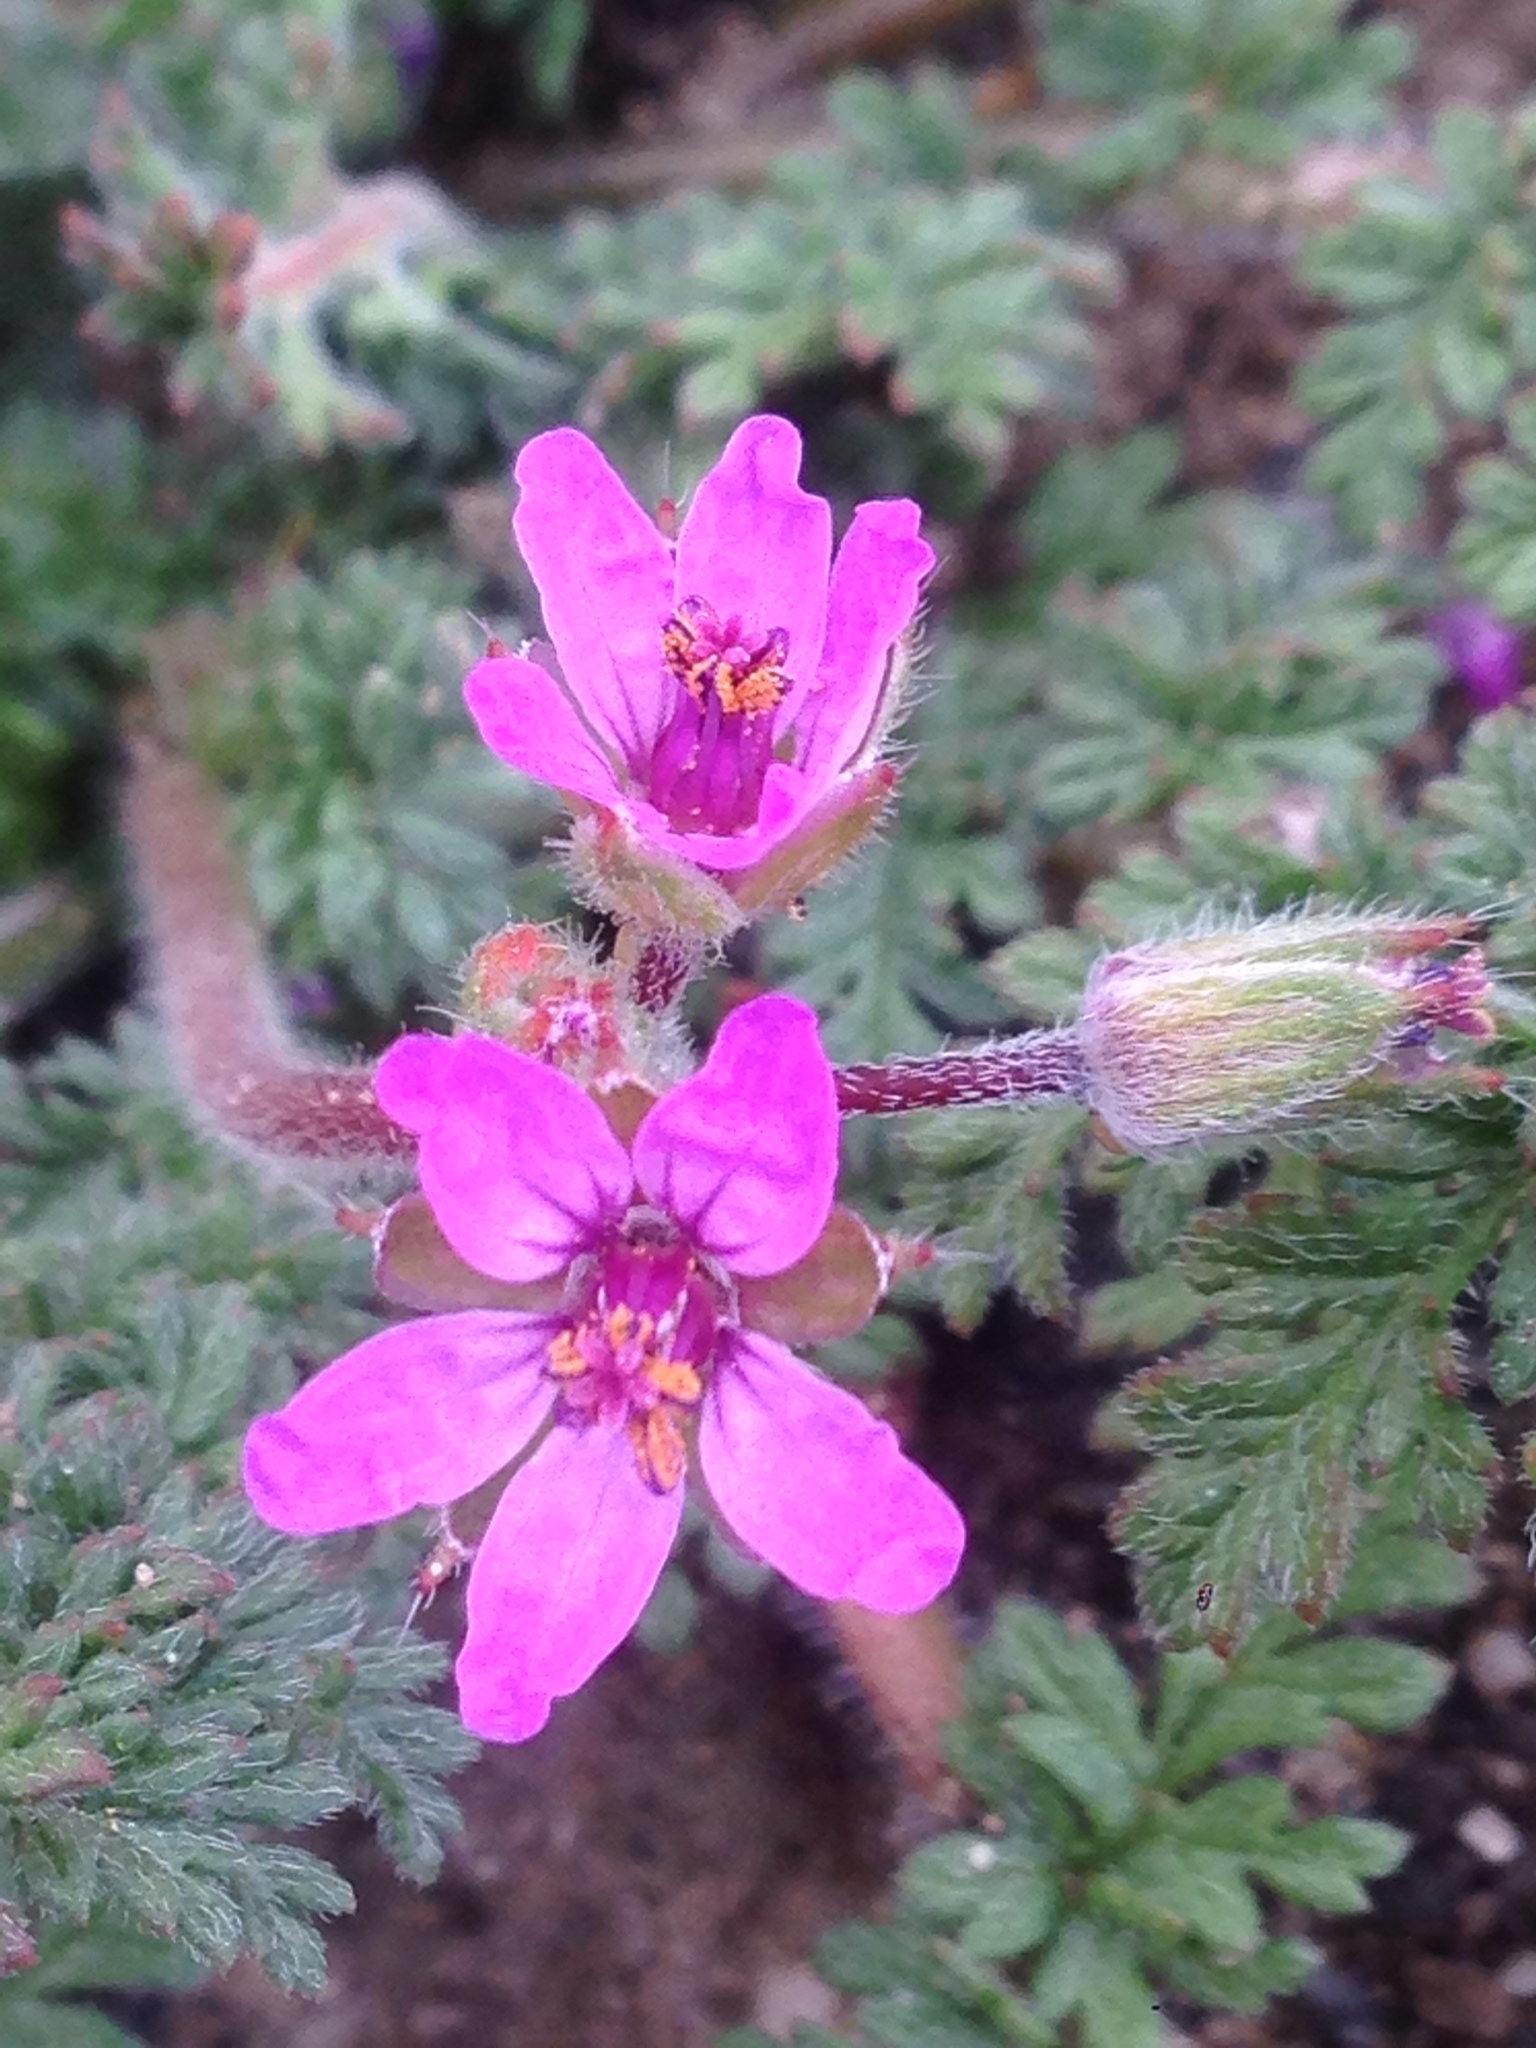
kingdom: Plantae
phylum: Tracheophyta
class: Magnoliopsida
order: Geraniales
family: Geraniaceae
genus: Erodium
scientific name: Erodium cicutarium
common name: Common stork's-bill
